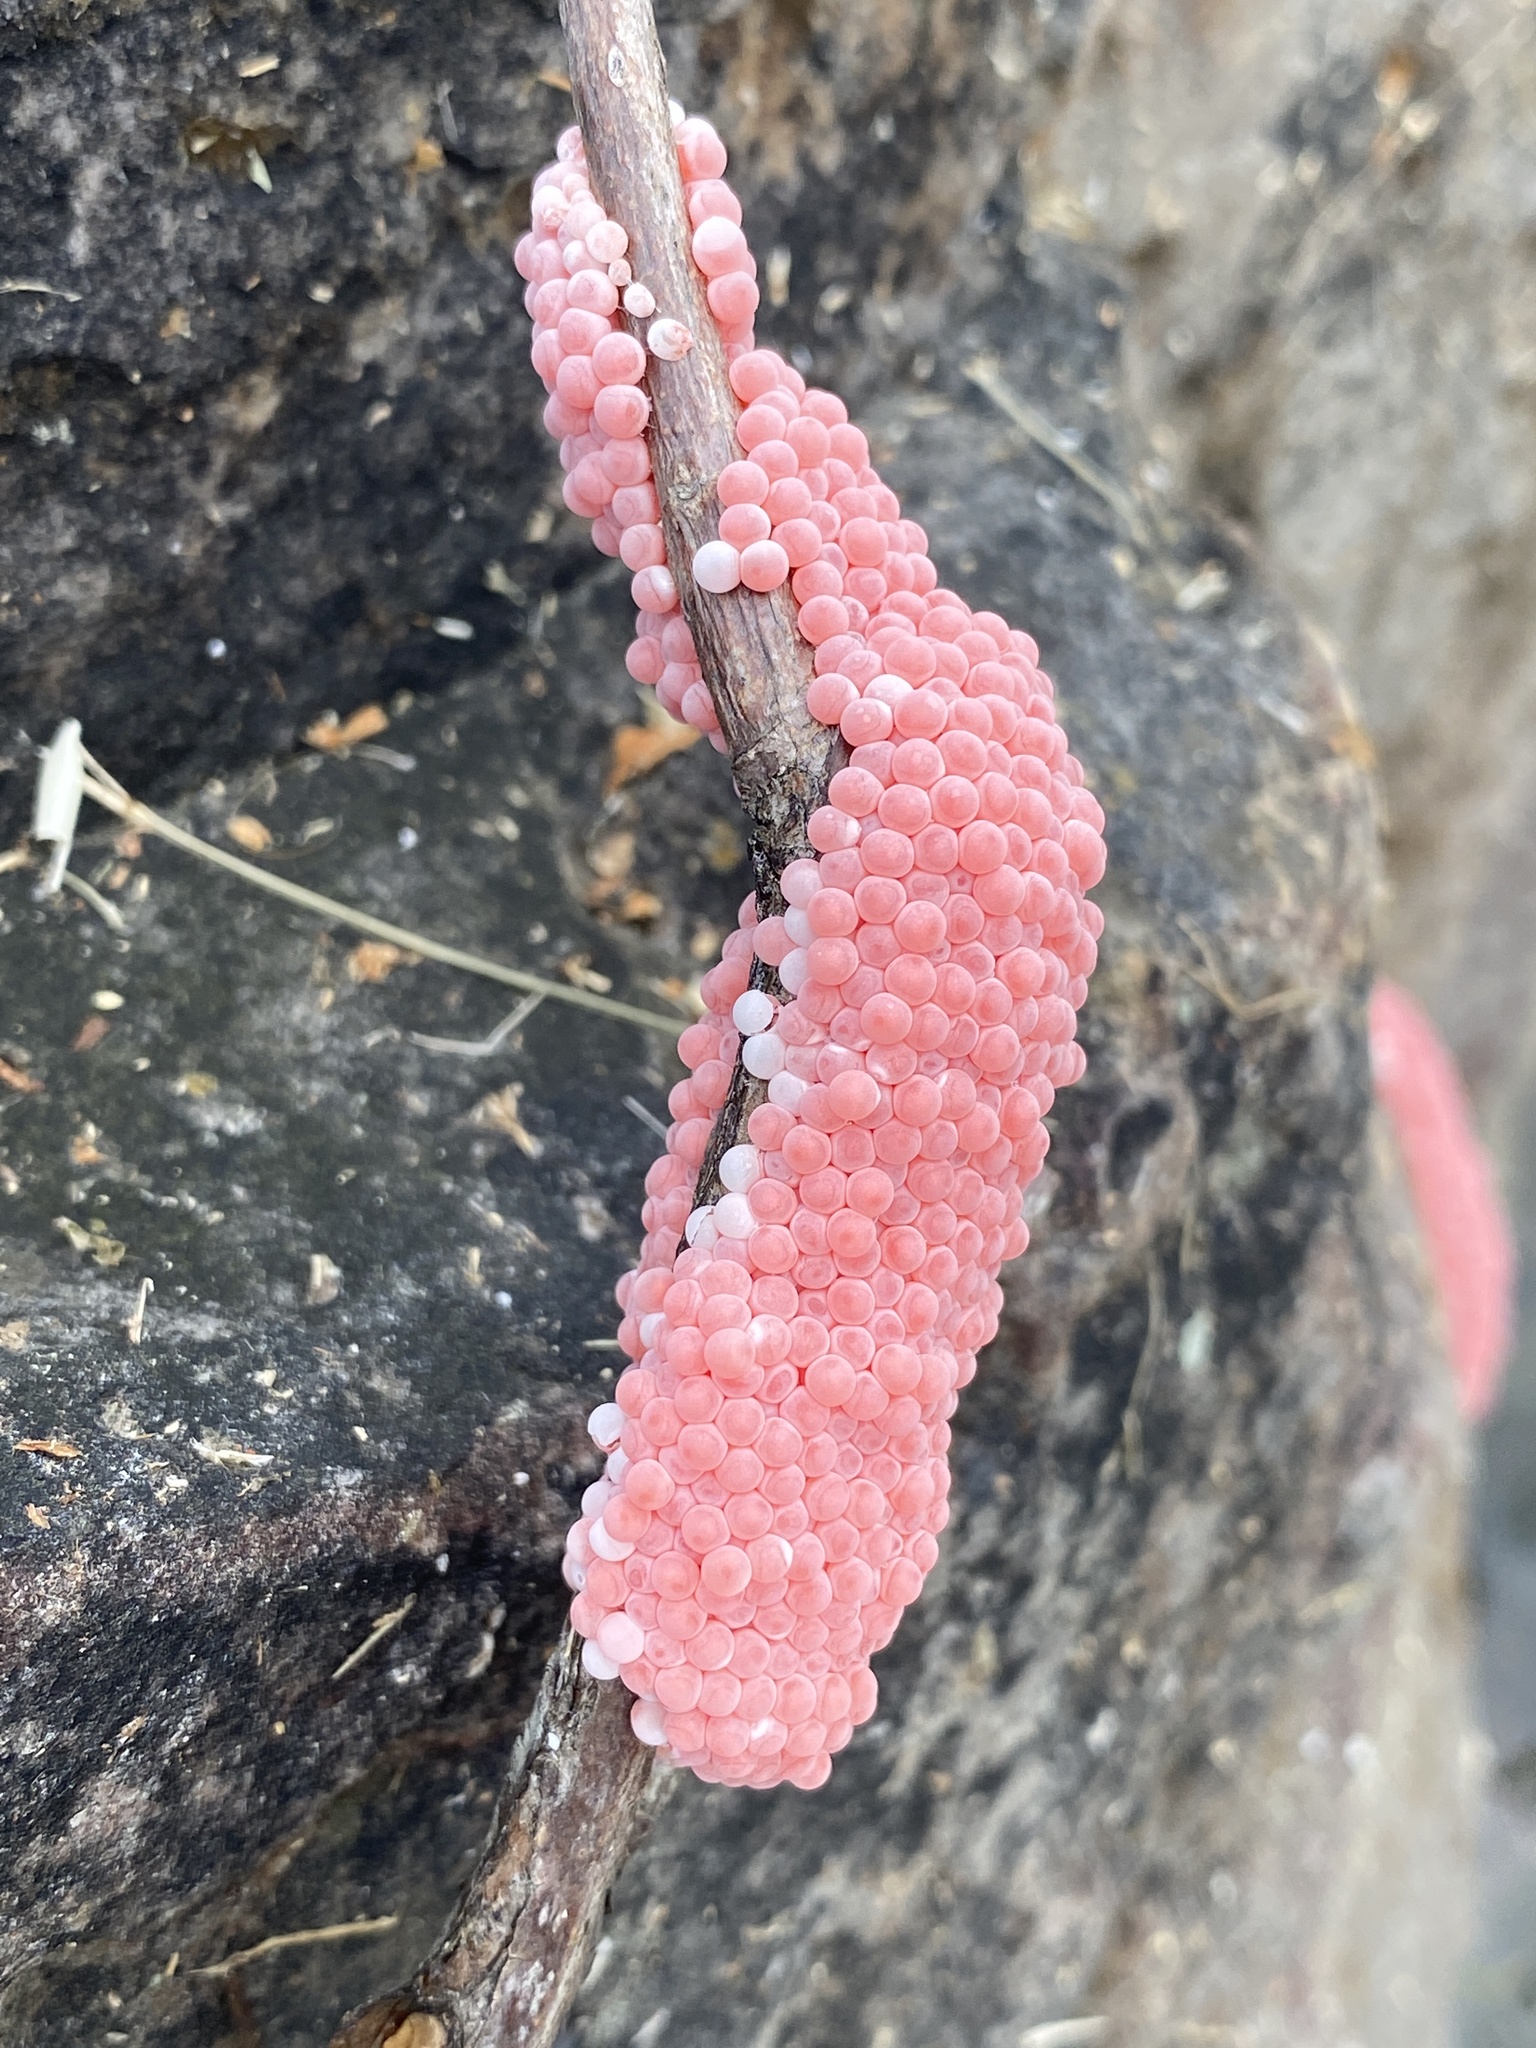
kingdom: Animalia
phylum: Mollusca
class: Gastropoda
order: Architaenioglossa
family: Ampullariidae
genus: Pomacea
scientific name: Pomacea maculata
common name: Giant applesnail
